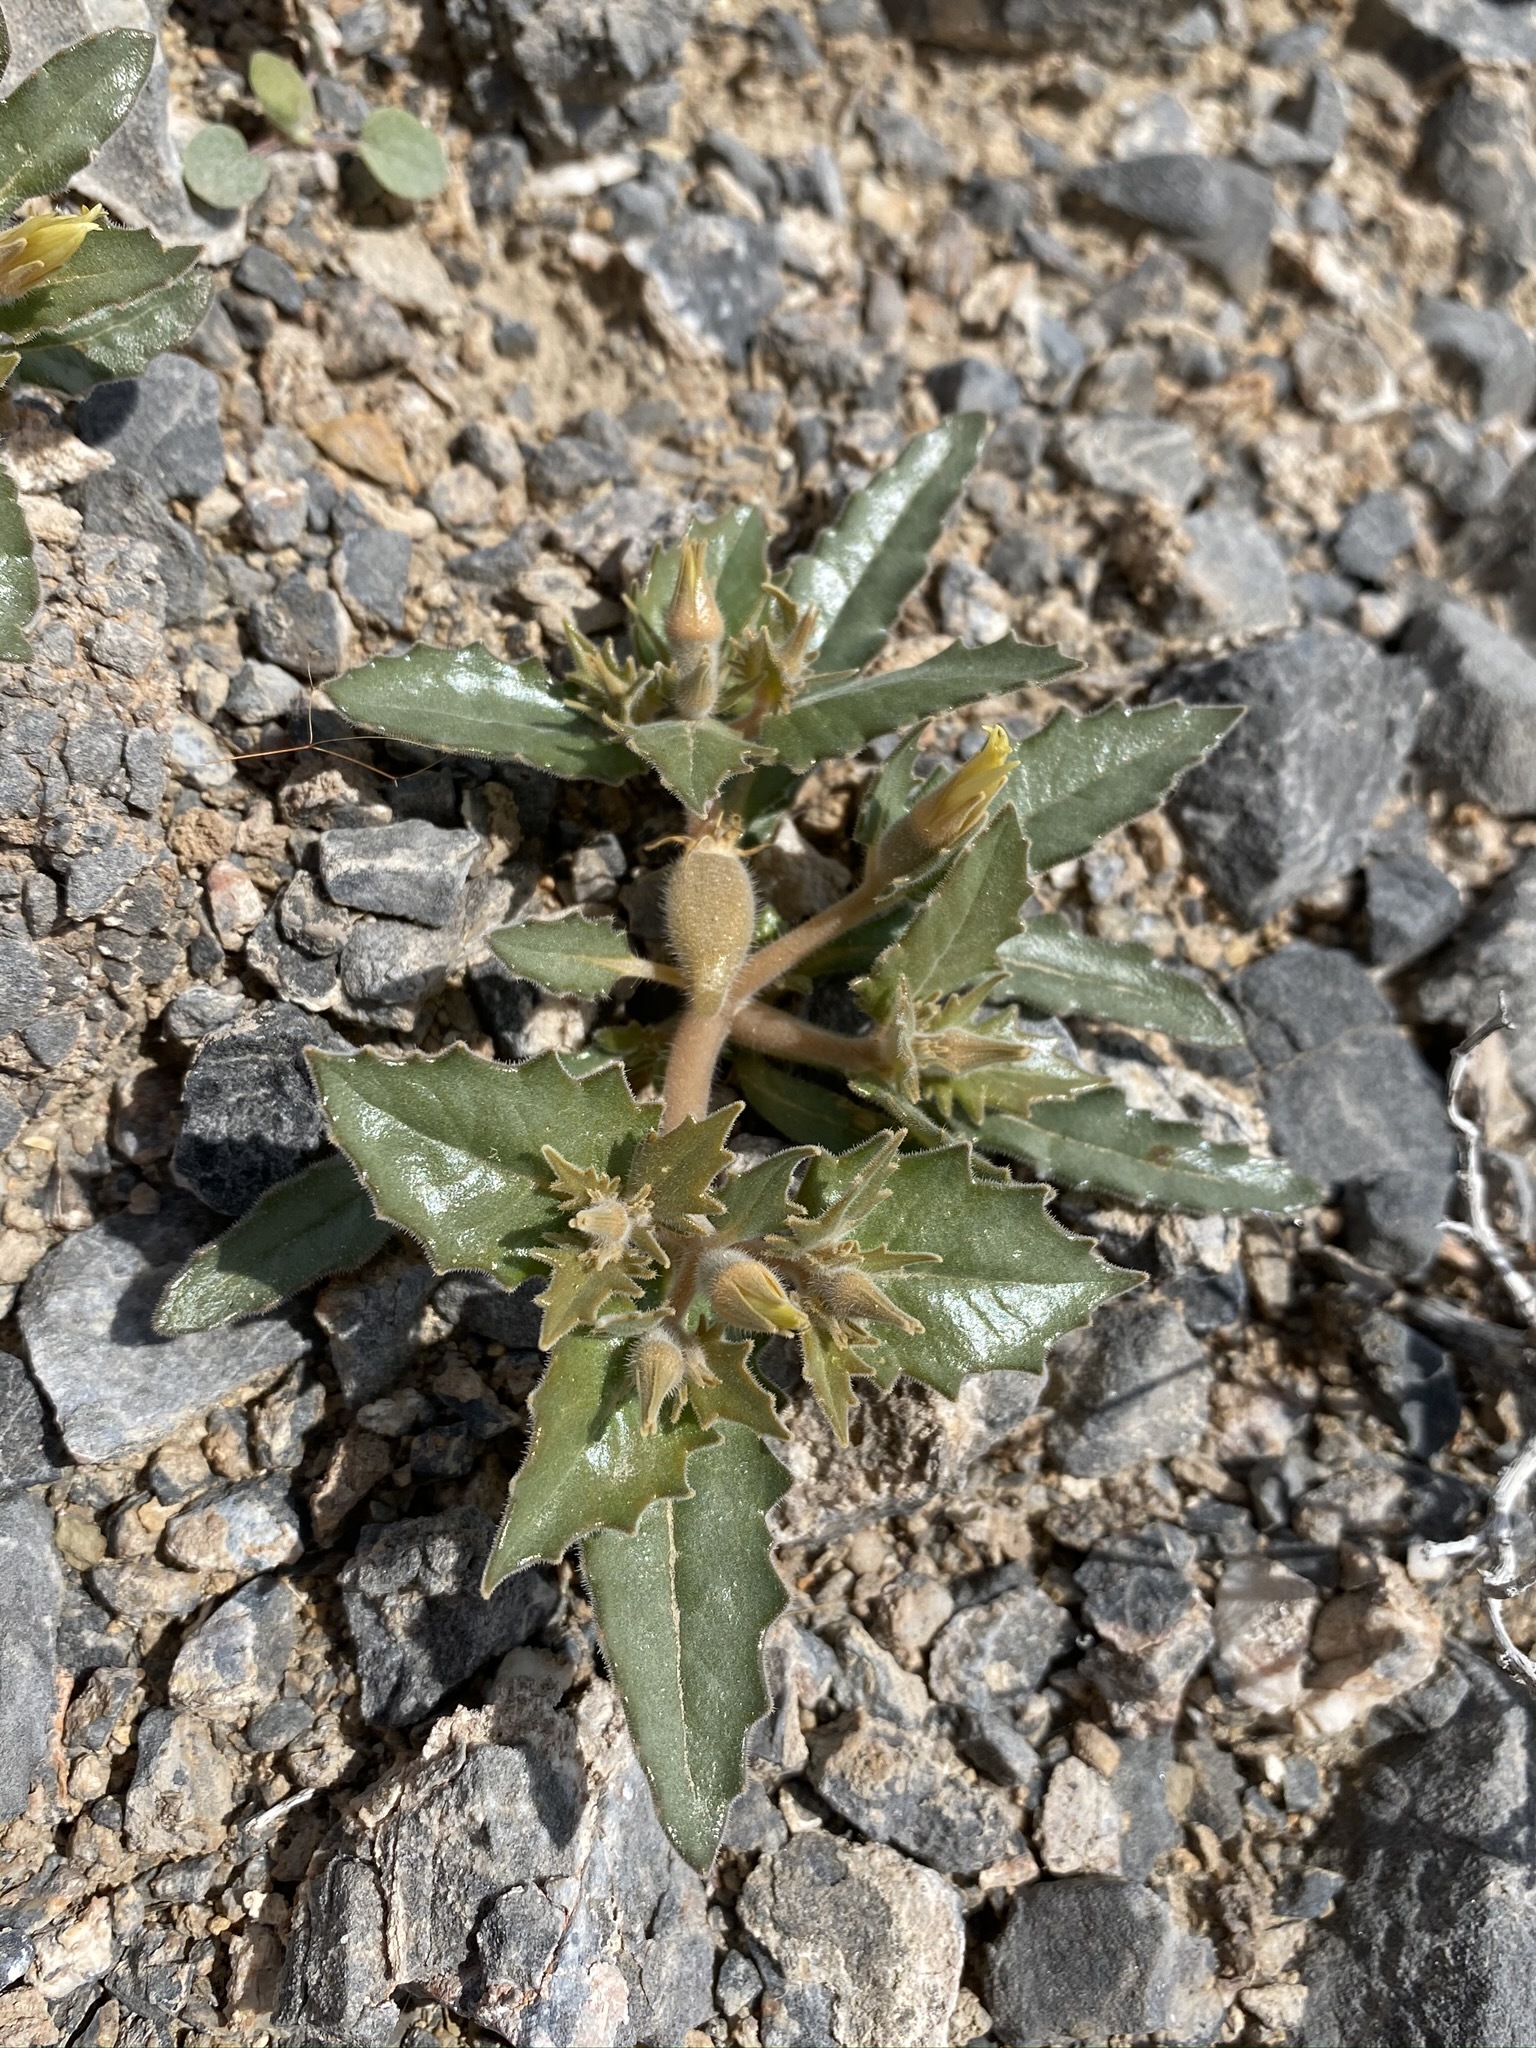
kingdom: Plantae
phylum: Tracheophyta
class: Magnoliopsida
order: Cornales
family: Loasaceae
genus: Mentzelia
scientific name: Mentzelia reflexa
